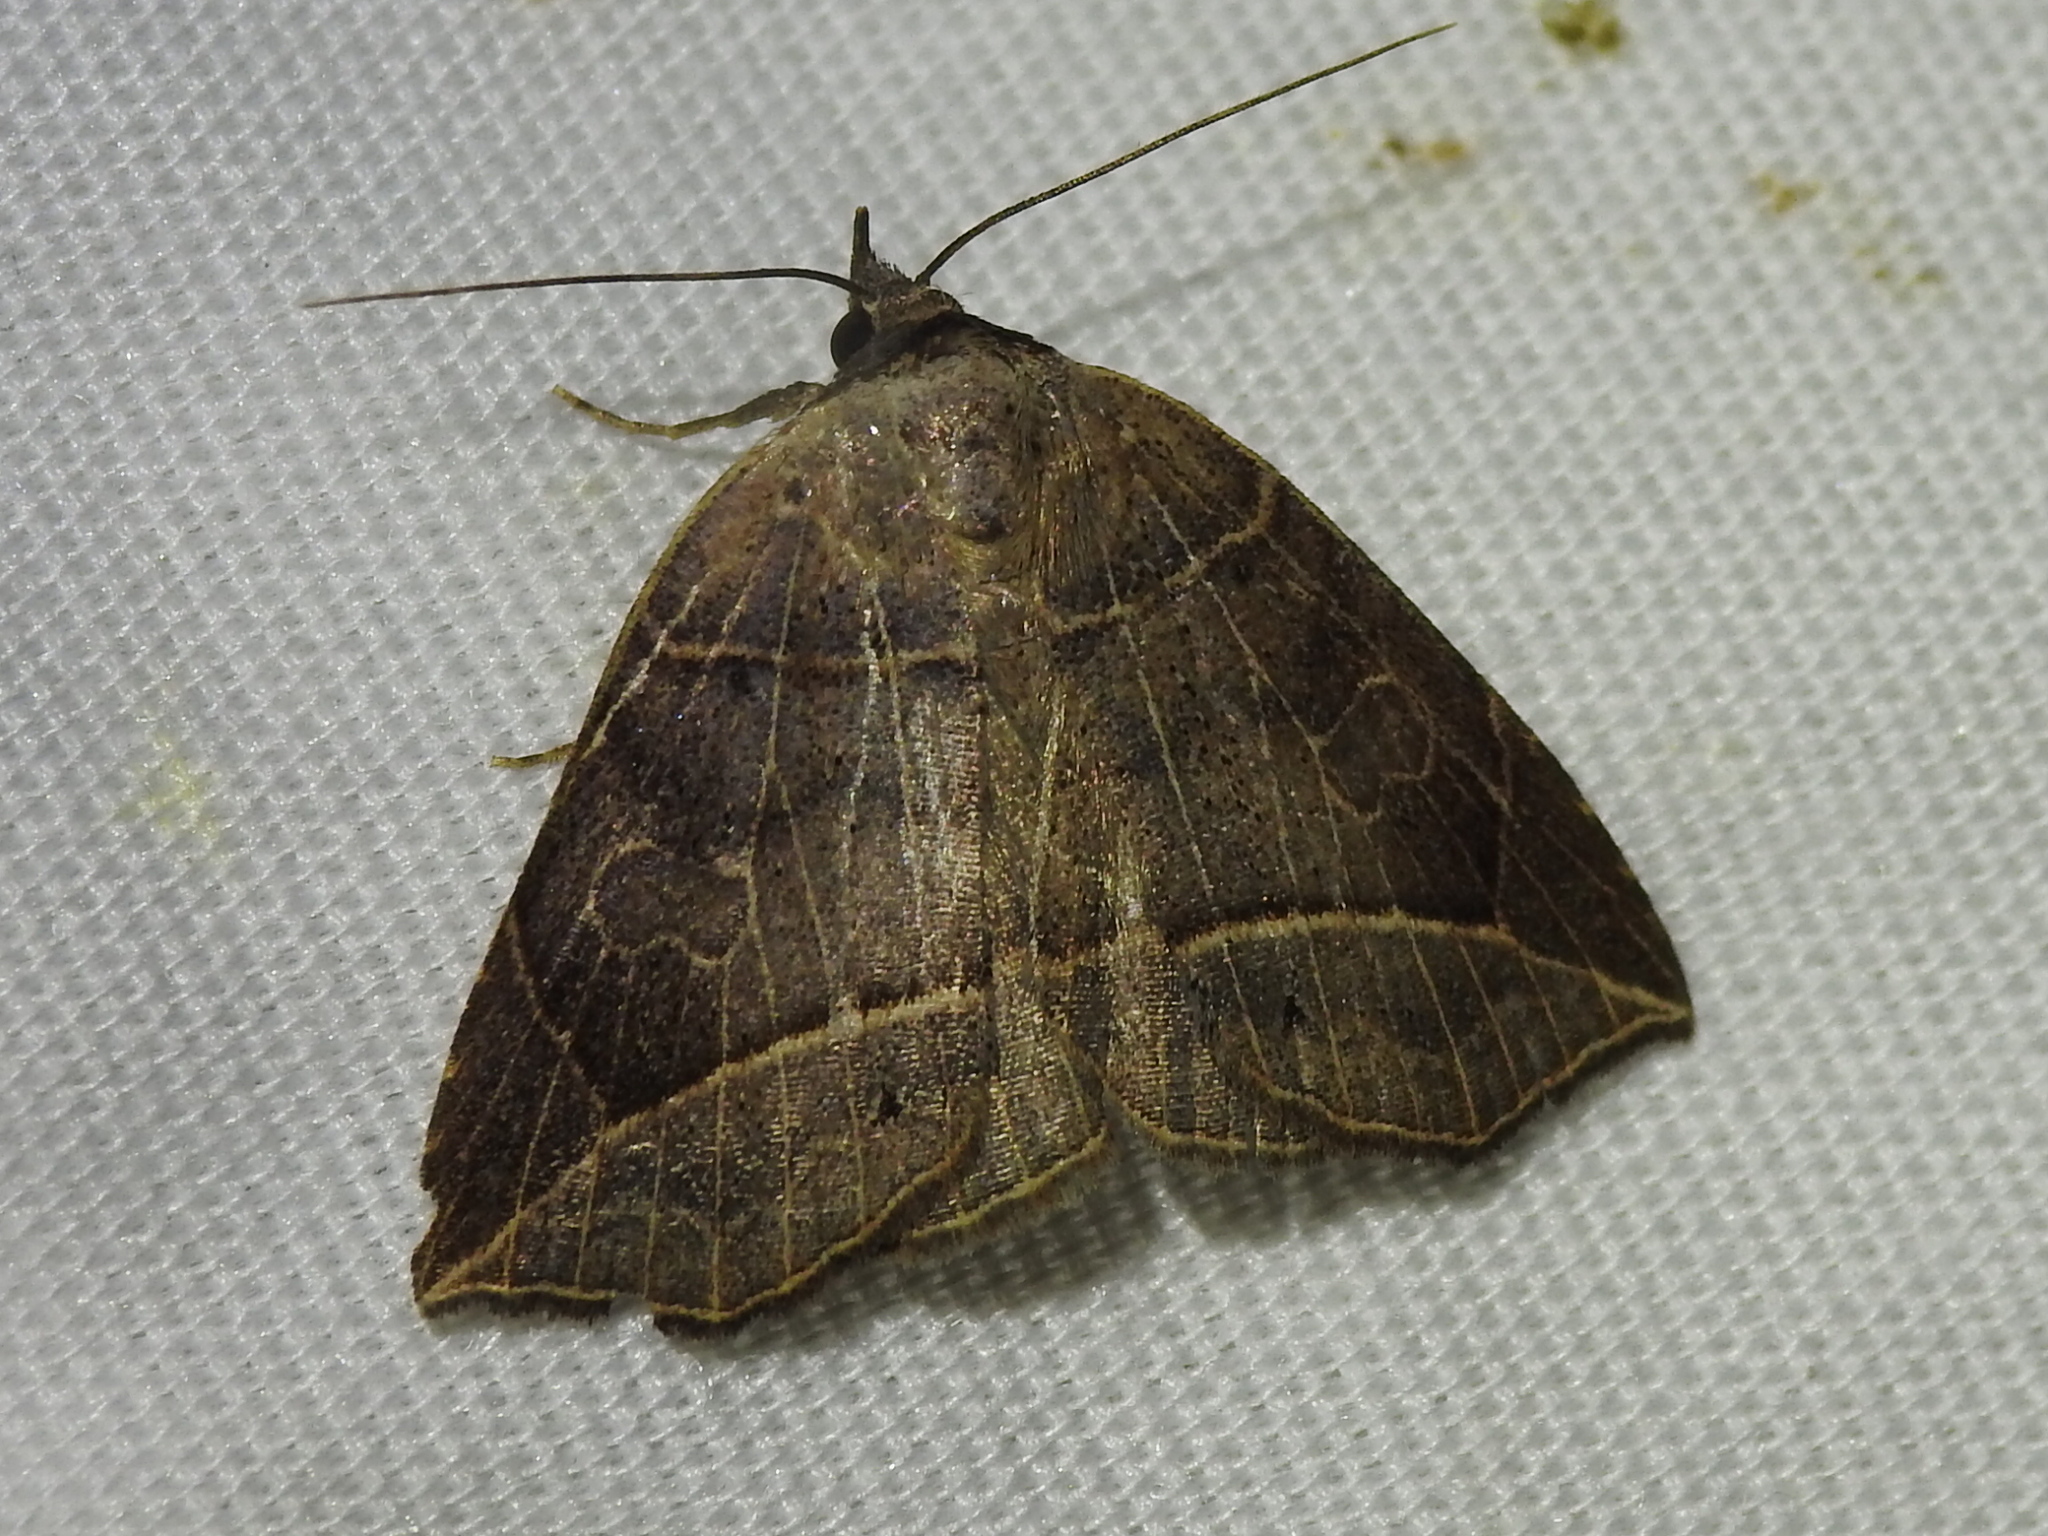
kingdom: Animalia
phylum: Arthropoda
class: Insecta
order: Lepidoptera
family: Erebidae
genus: Isogona
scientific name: Isogona tenuis
